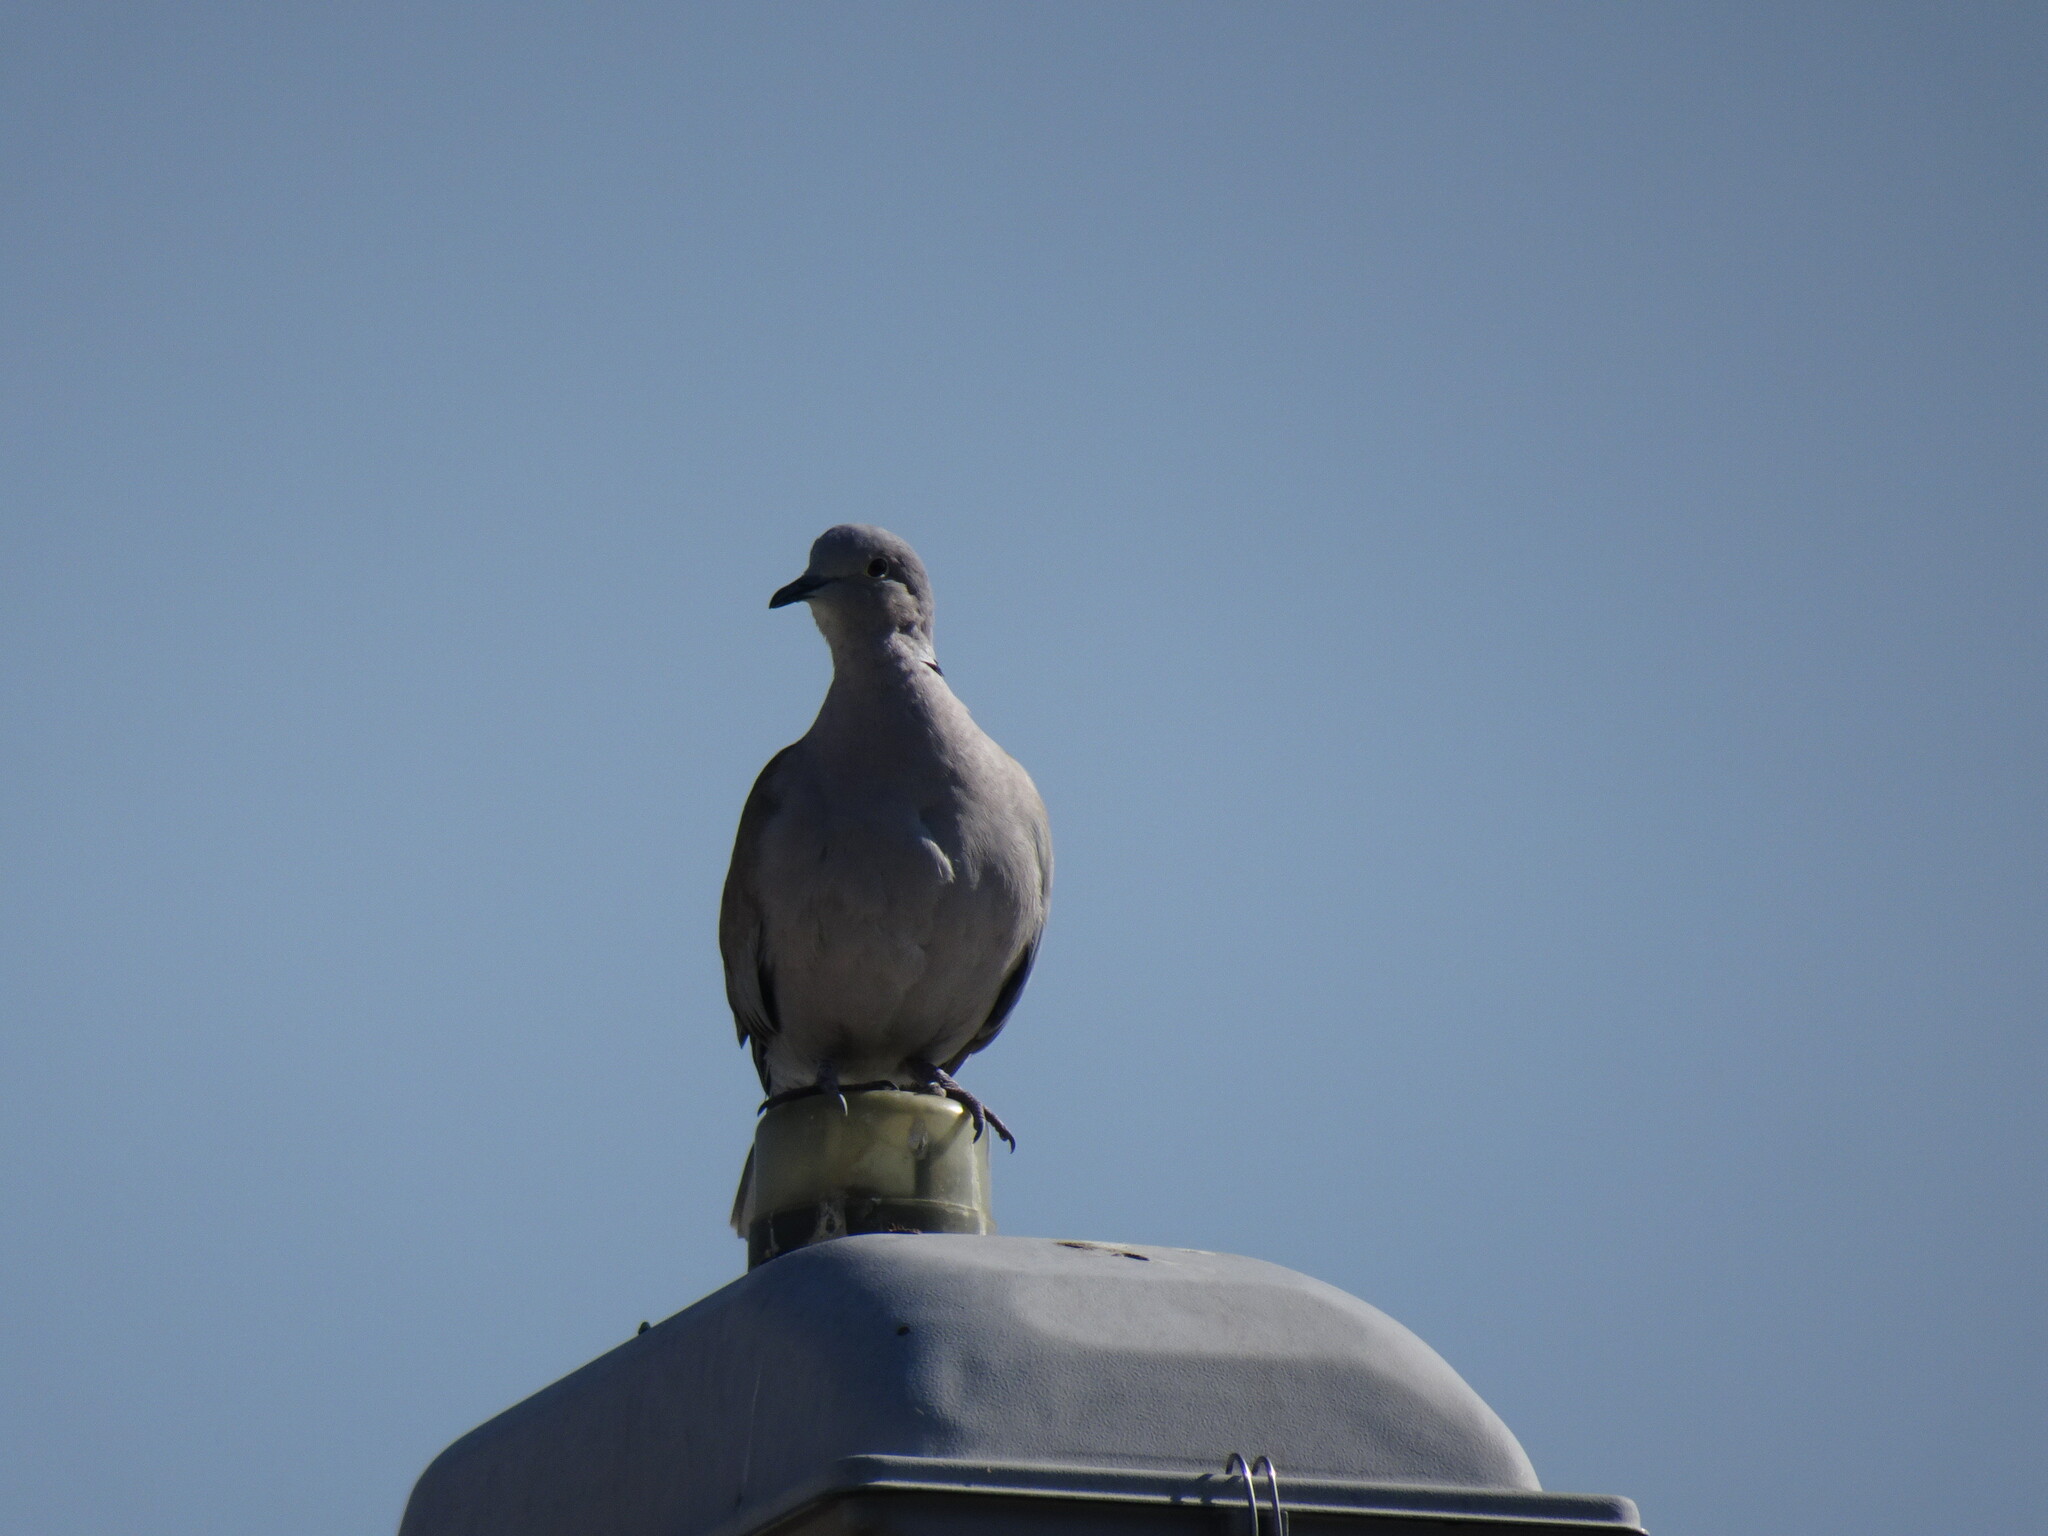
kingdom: Animalia
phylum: Chordata
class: Aves
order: Columbiformes
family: Columbidae
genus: Streptopelia
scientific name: Streptopelia decaocto
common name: Eurasian collared dove
